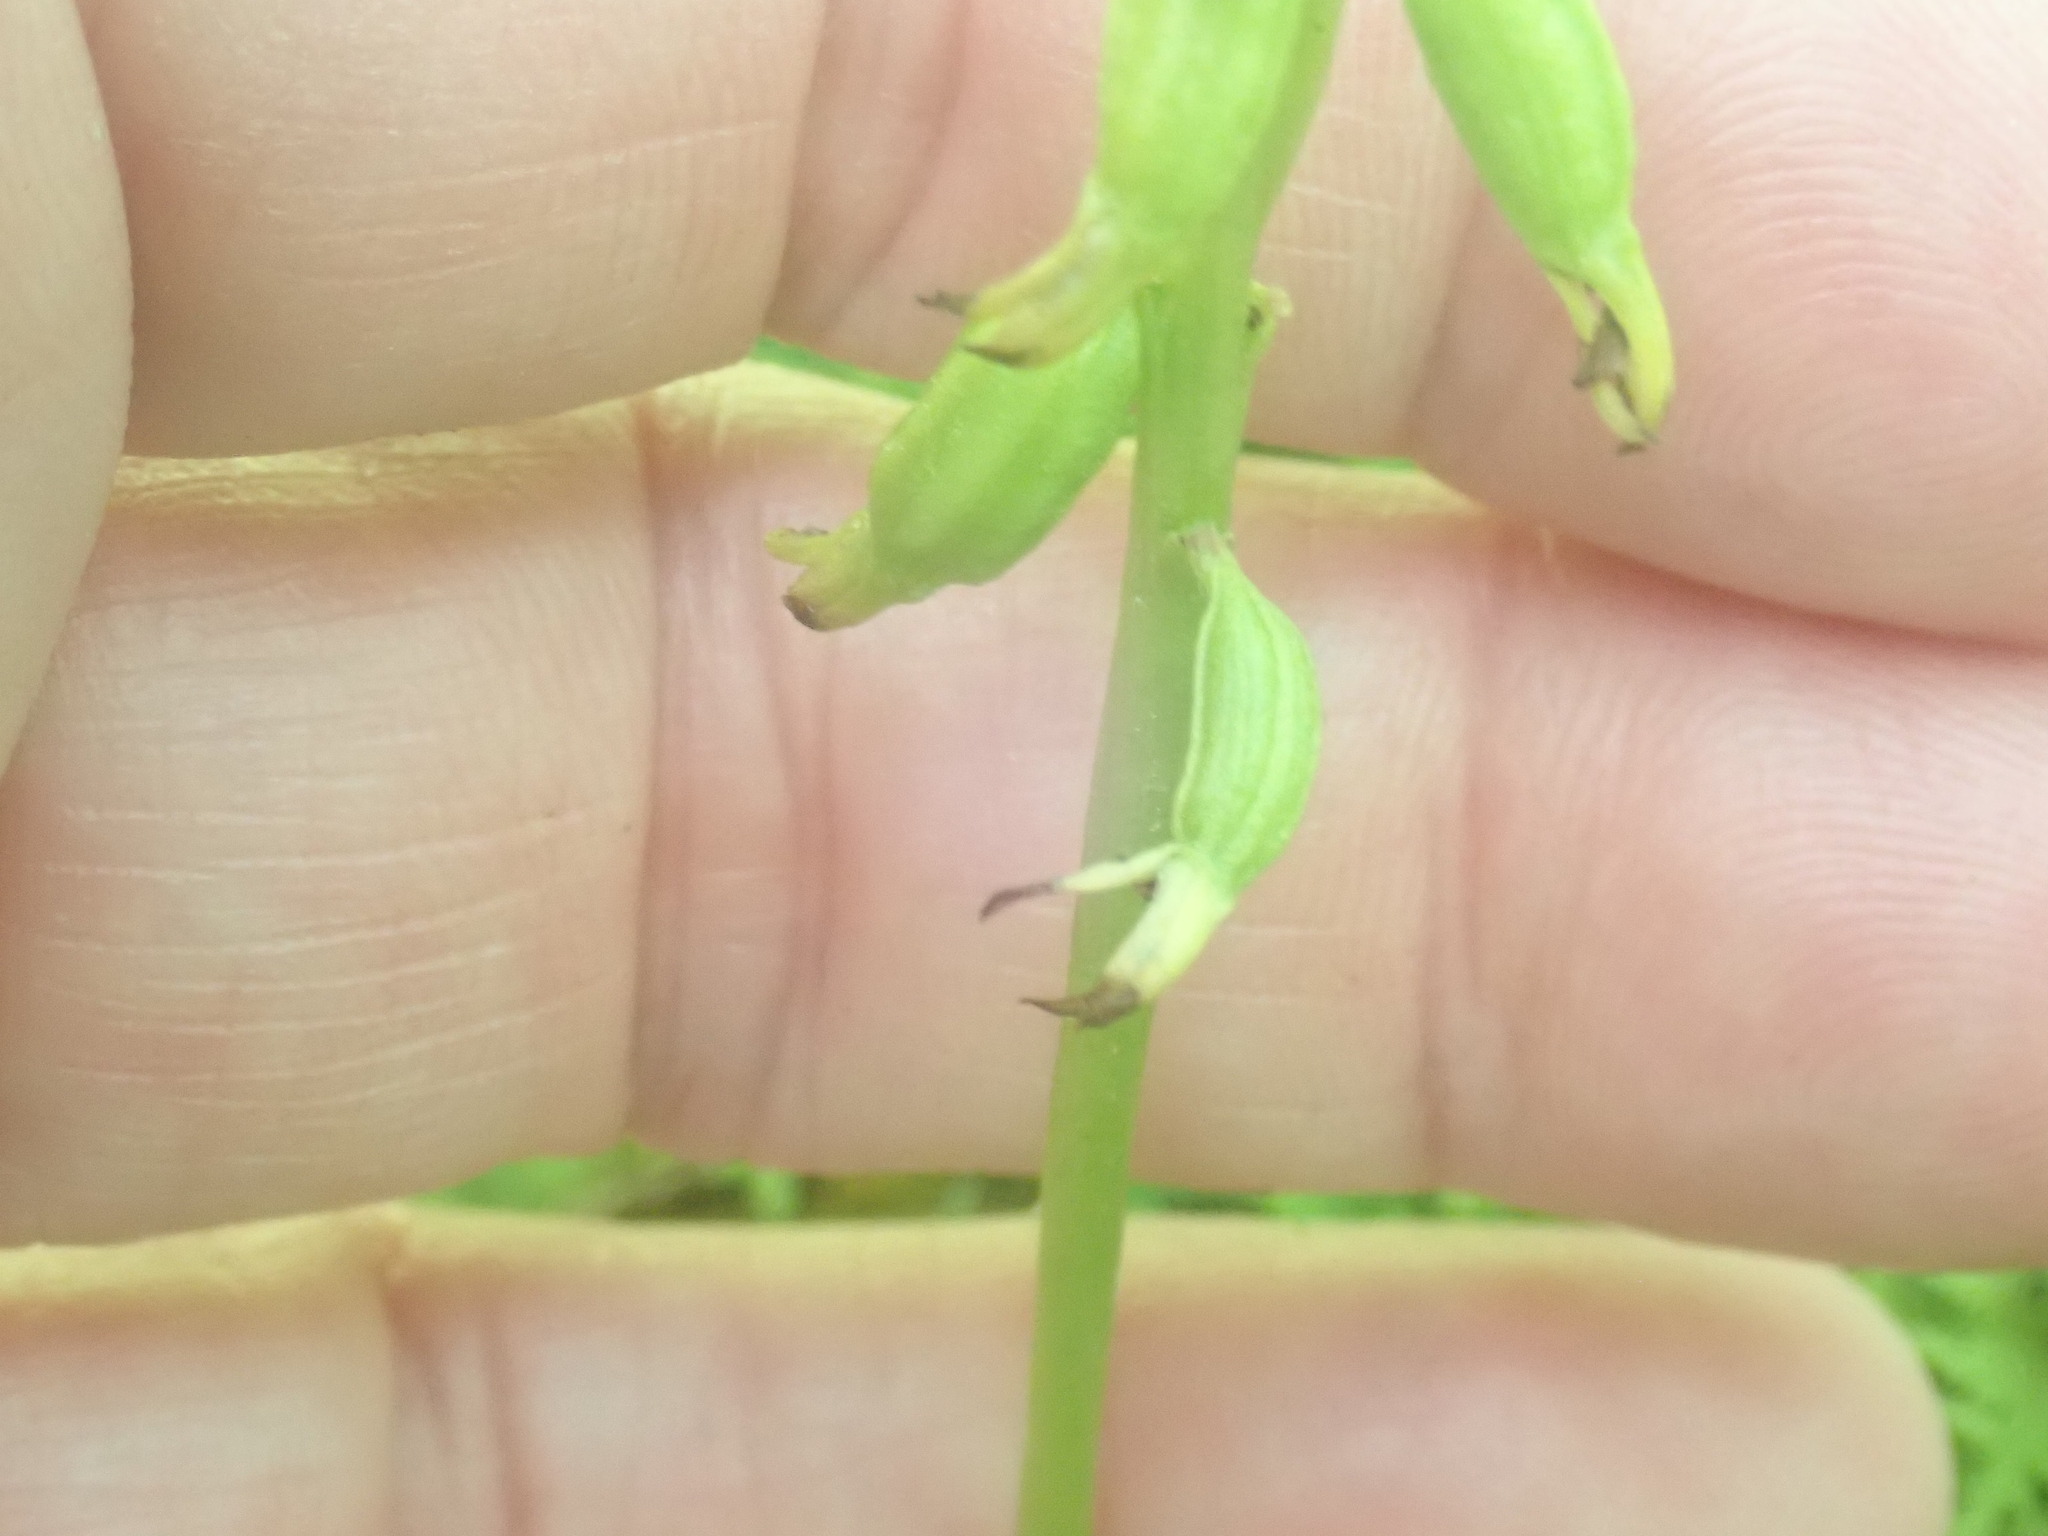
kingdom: Plantae
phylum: Tracheophyta
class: Liliopsida
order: Asparagales
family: Orchidaceae
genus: Corallorhiza
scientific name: Corallorhiza trifida
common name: Yellow coralroot
